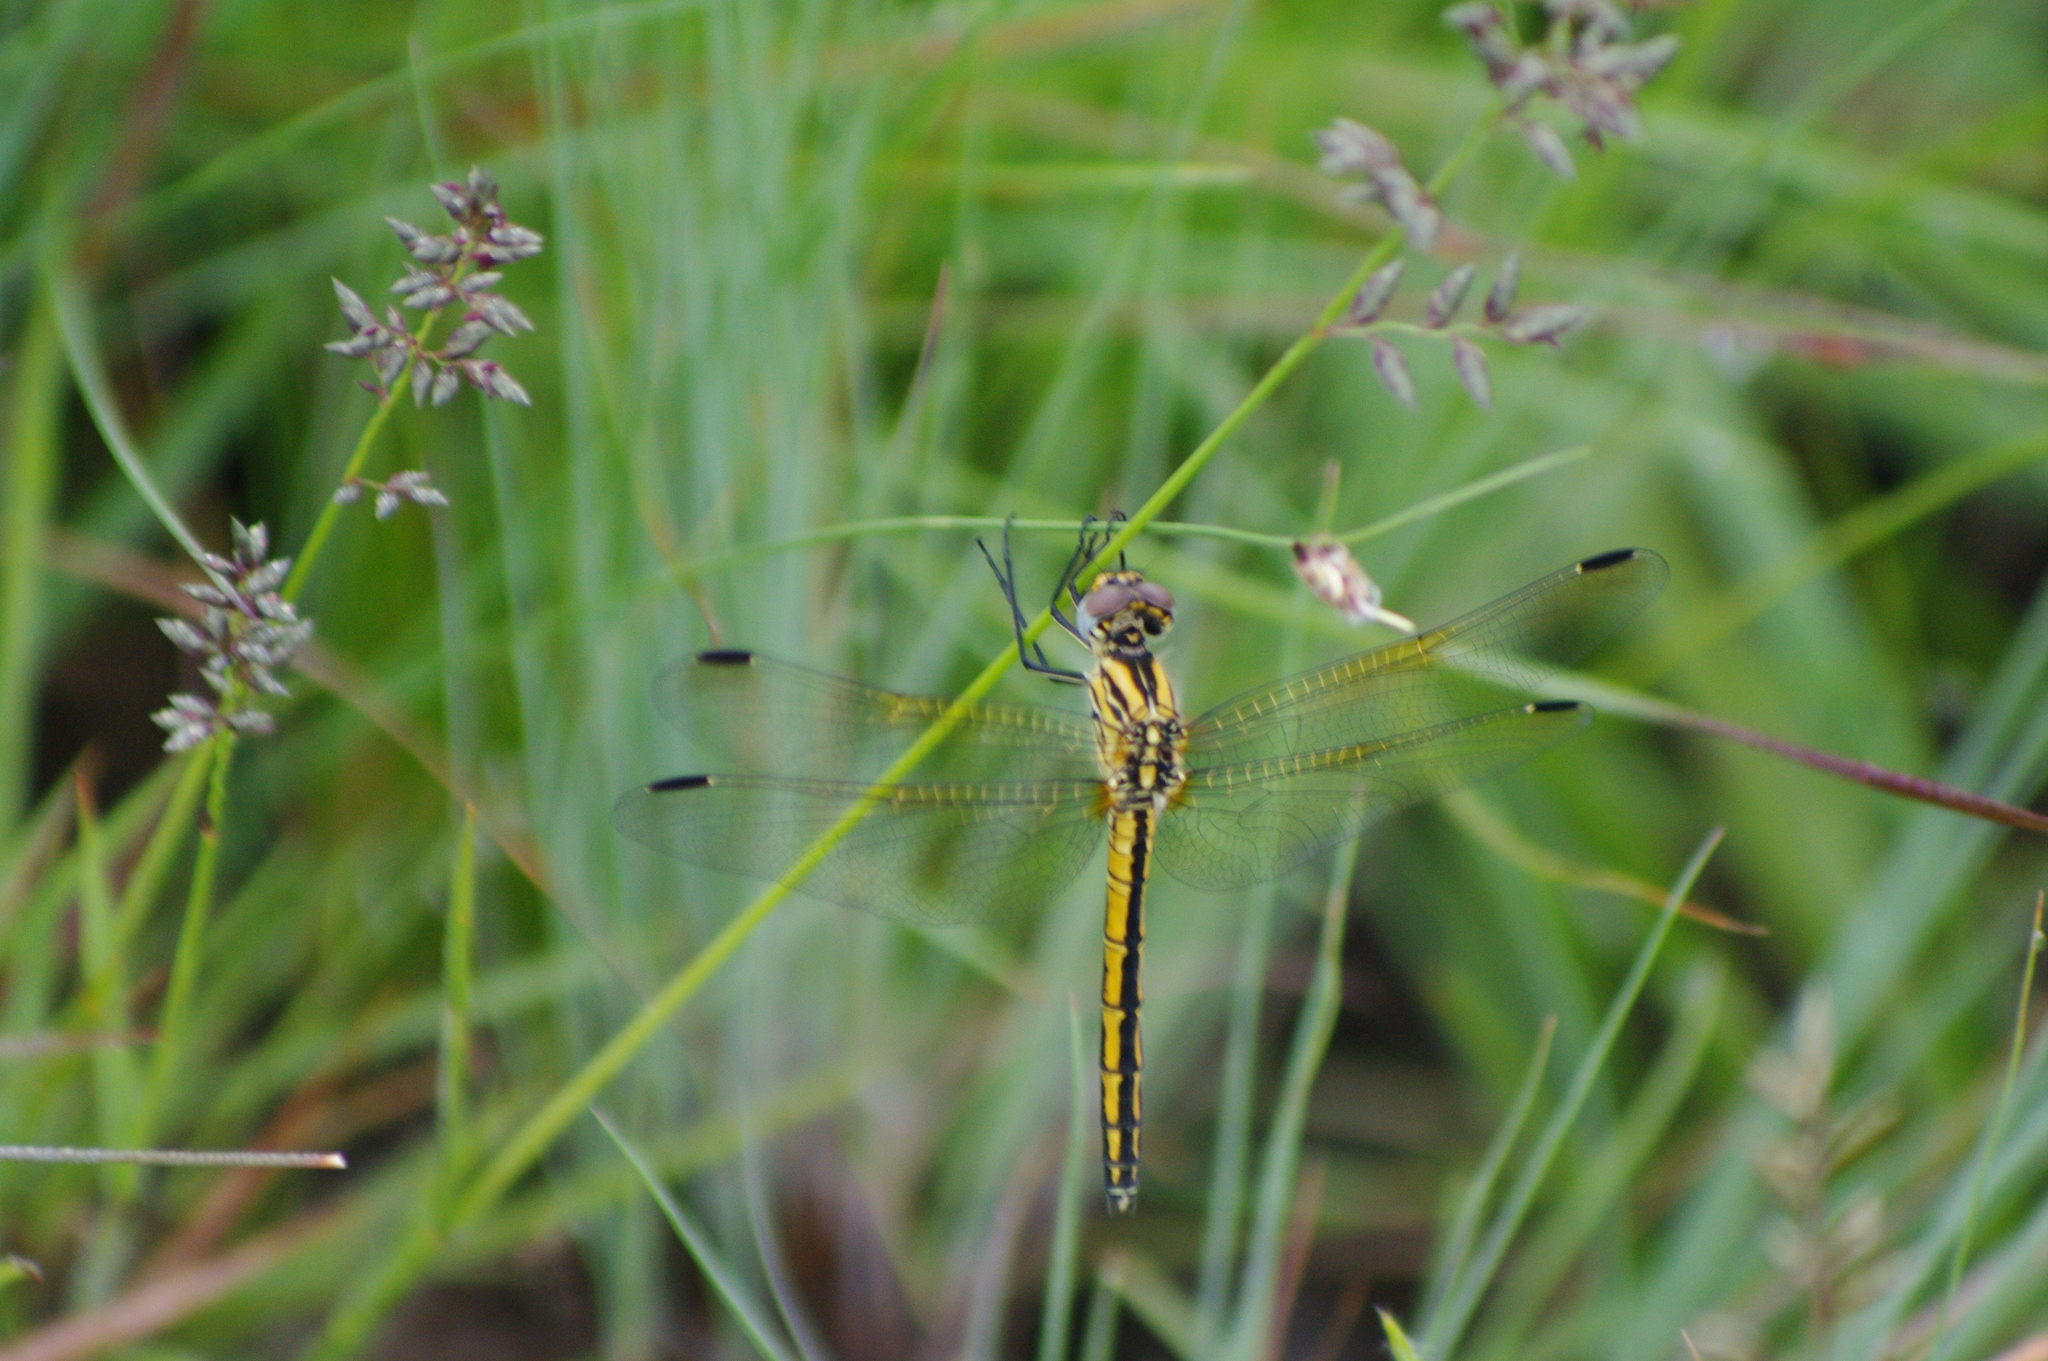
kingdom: Animalia
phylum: Arthropoda
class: Insecta
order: Odonata
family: Libellulidae
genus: Trithemis
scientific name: Trithemis dorsalis
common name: Highland dropwing
